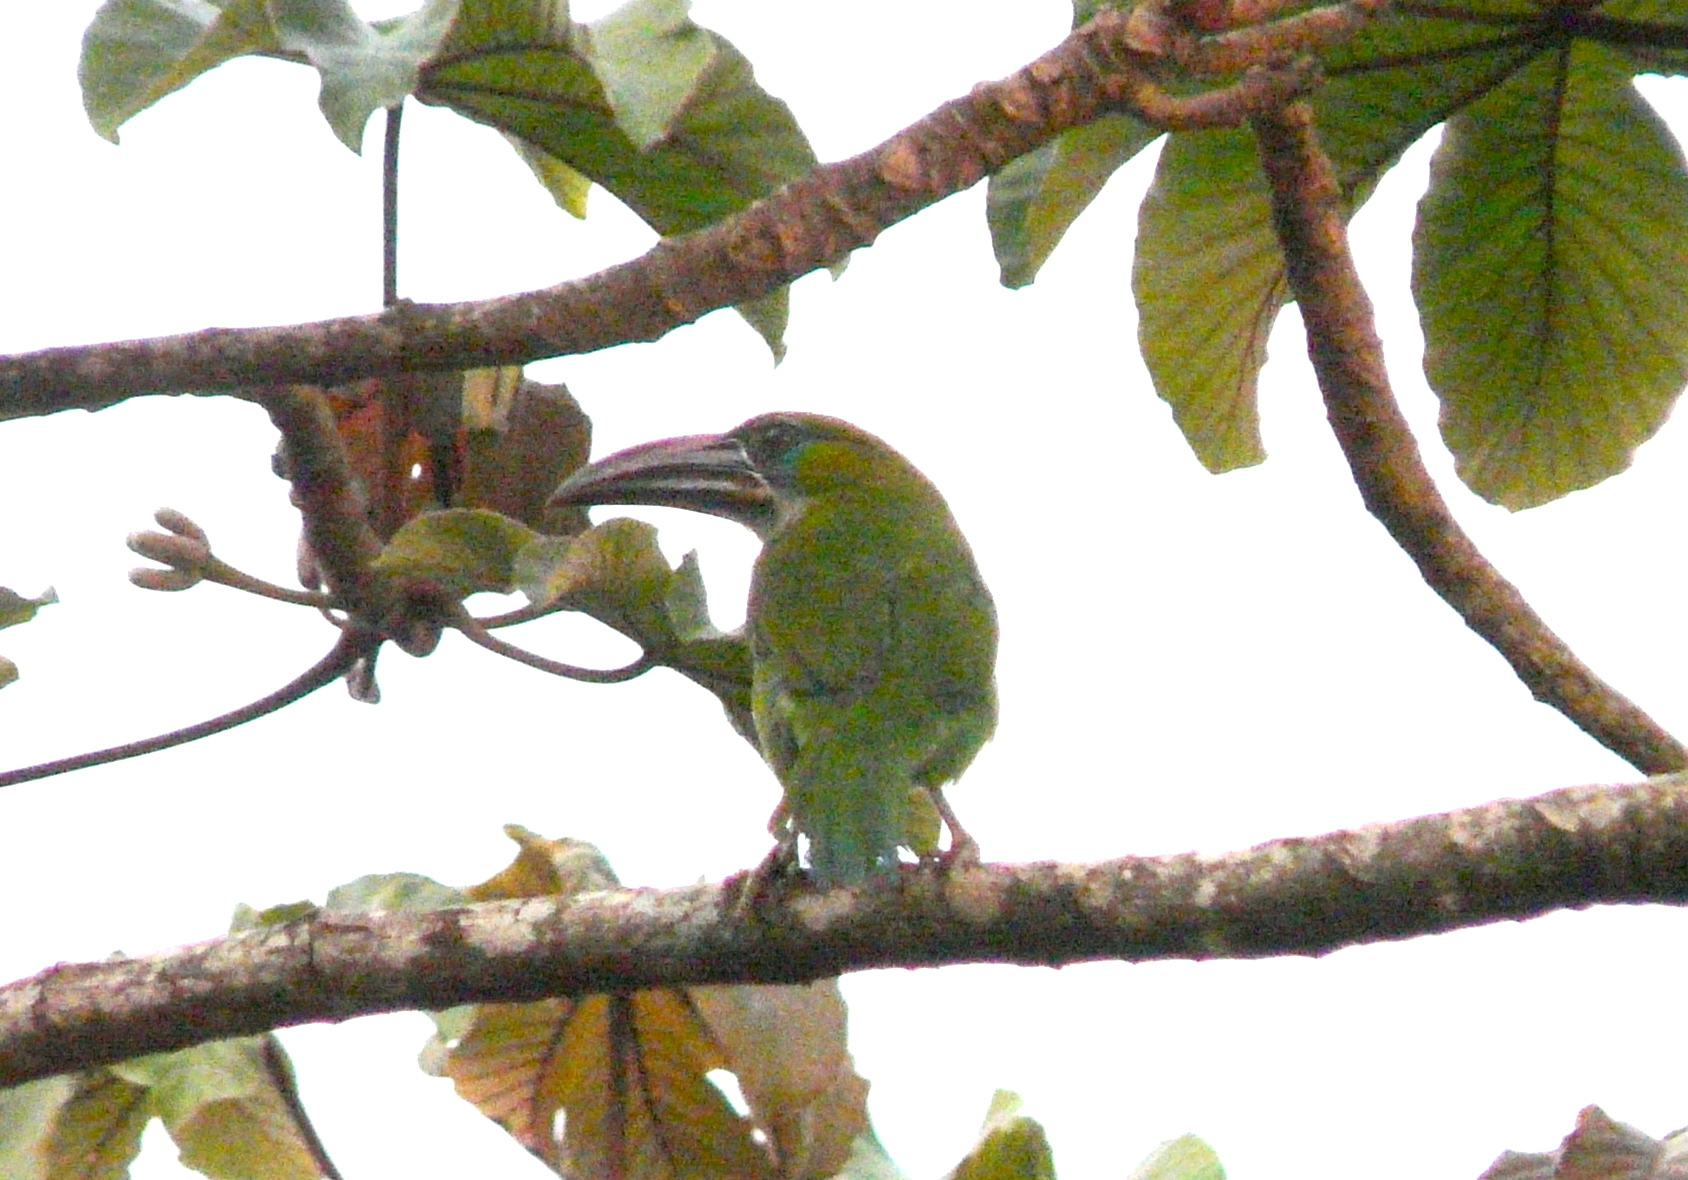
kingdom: Animalia
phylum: Chordata
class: Aves
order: Piciformes
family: Ramphastidae
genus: Aulacorhynchus
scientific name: Aulacorhynchus sulcatus
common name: Groove-billed toucanet
